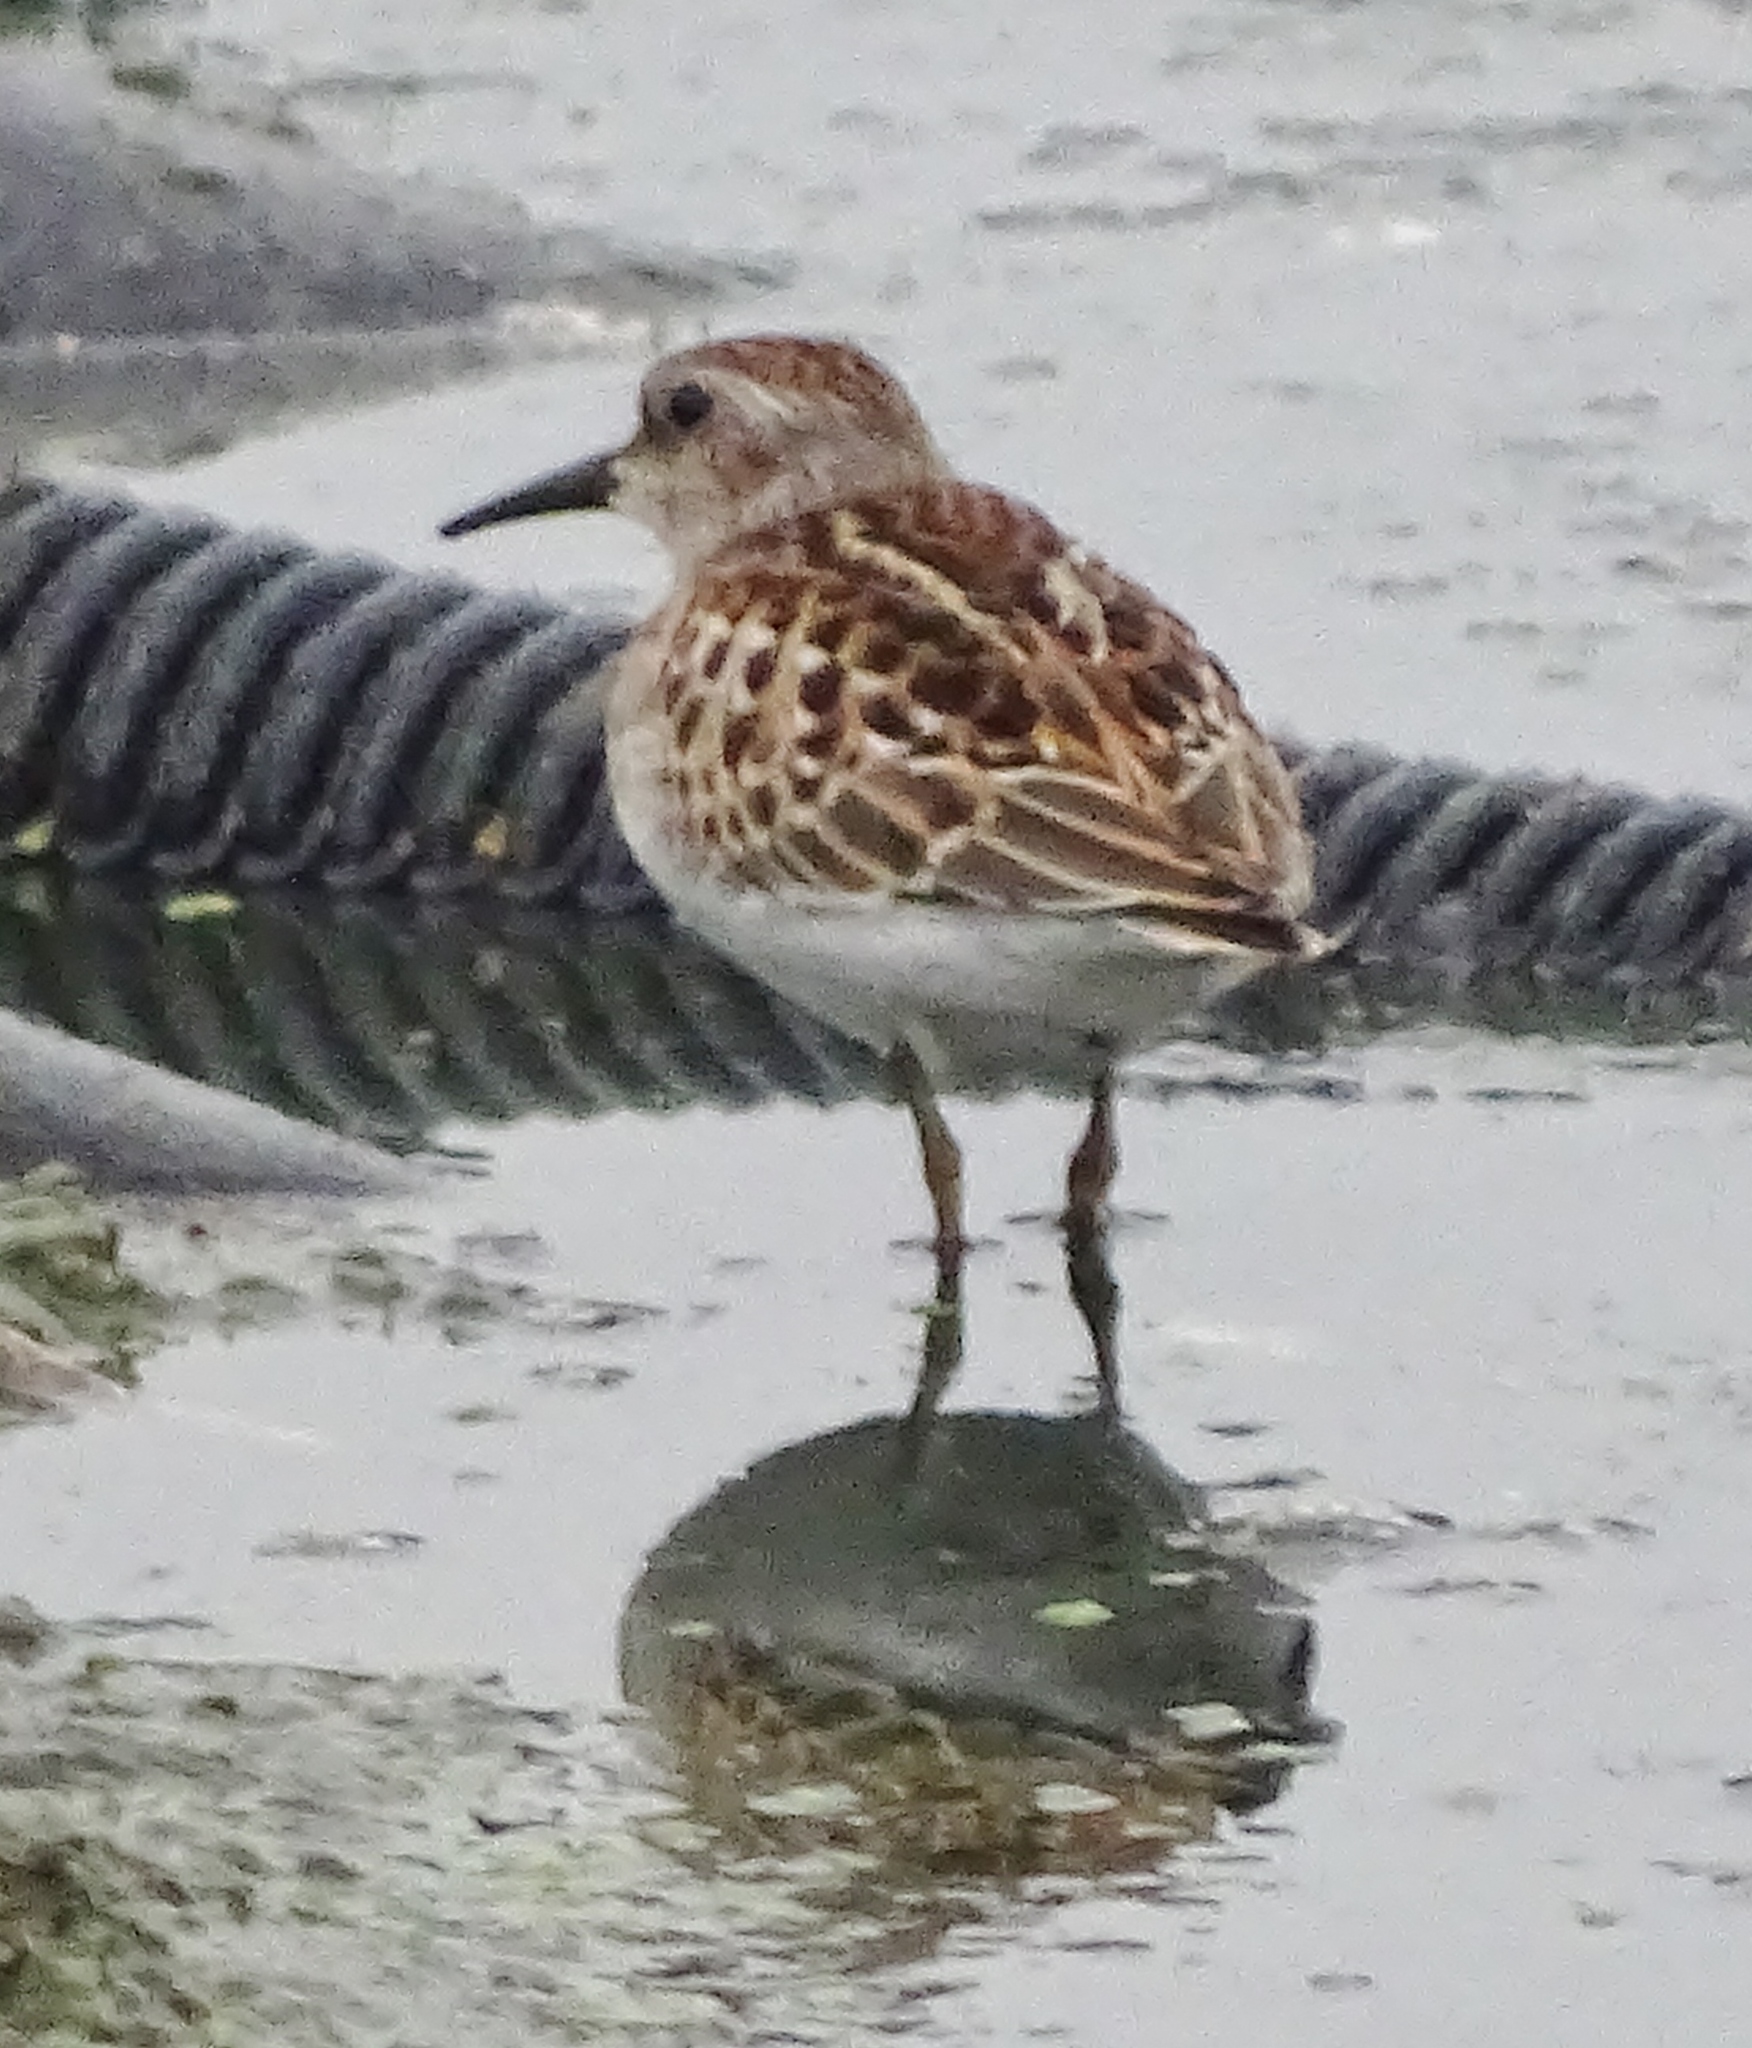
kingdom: Animalia
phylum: Chordata
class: Aves
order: Charadriiformes
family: Scolopacidae
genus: Calidris
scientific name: Calidris minutilla
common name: Least sandpiper
